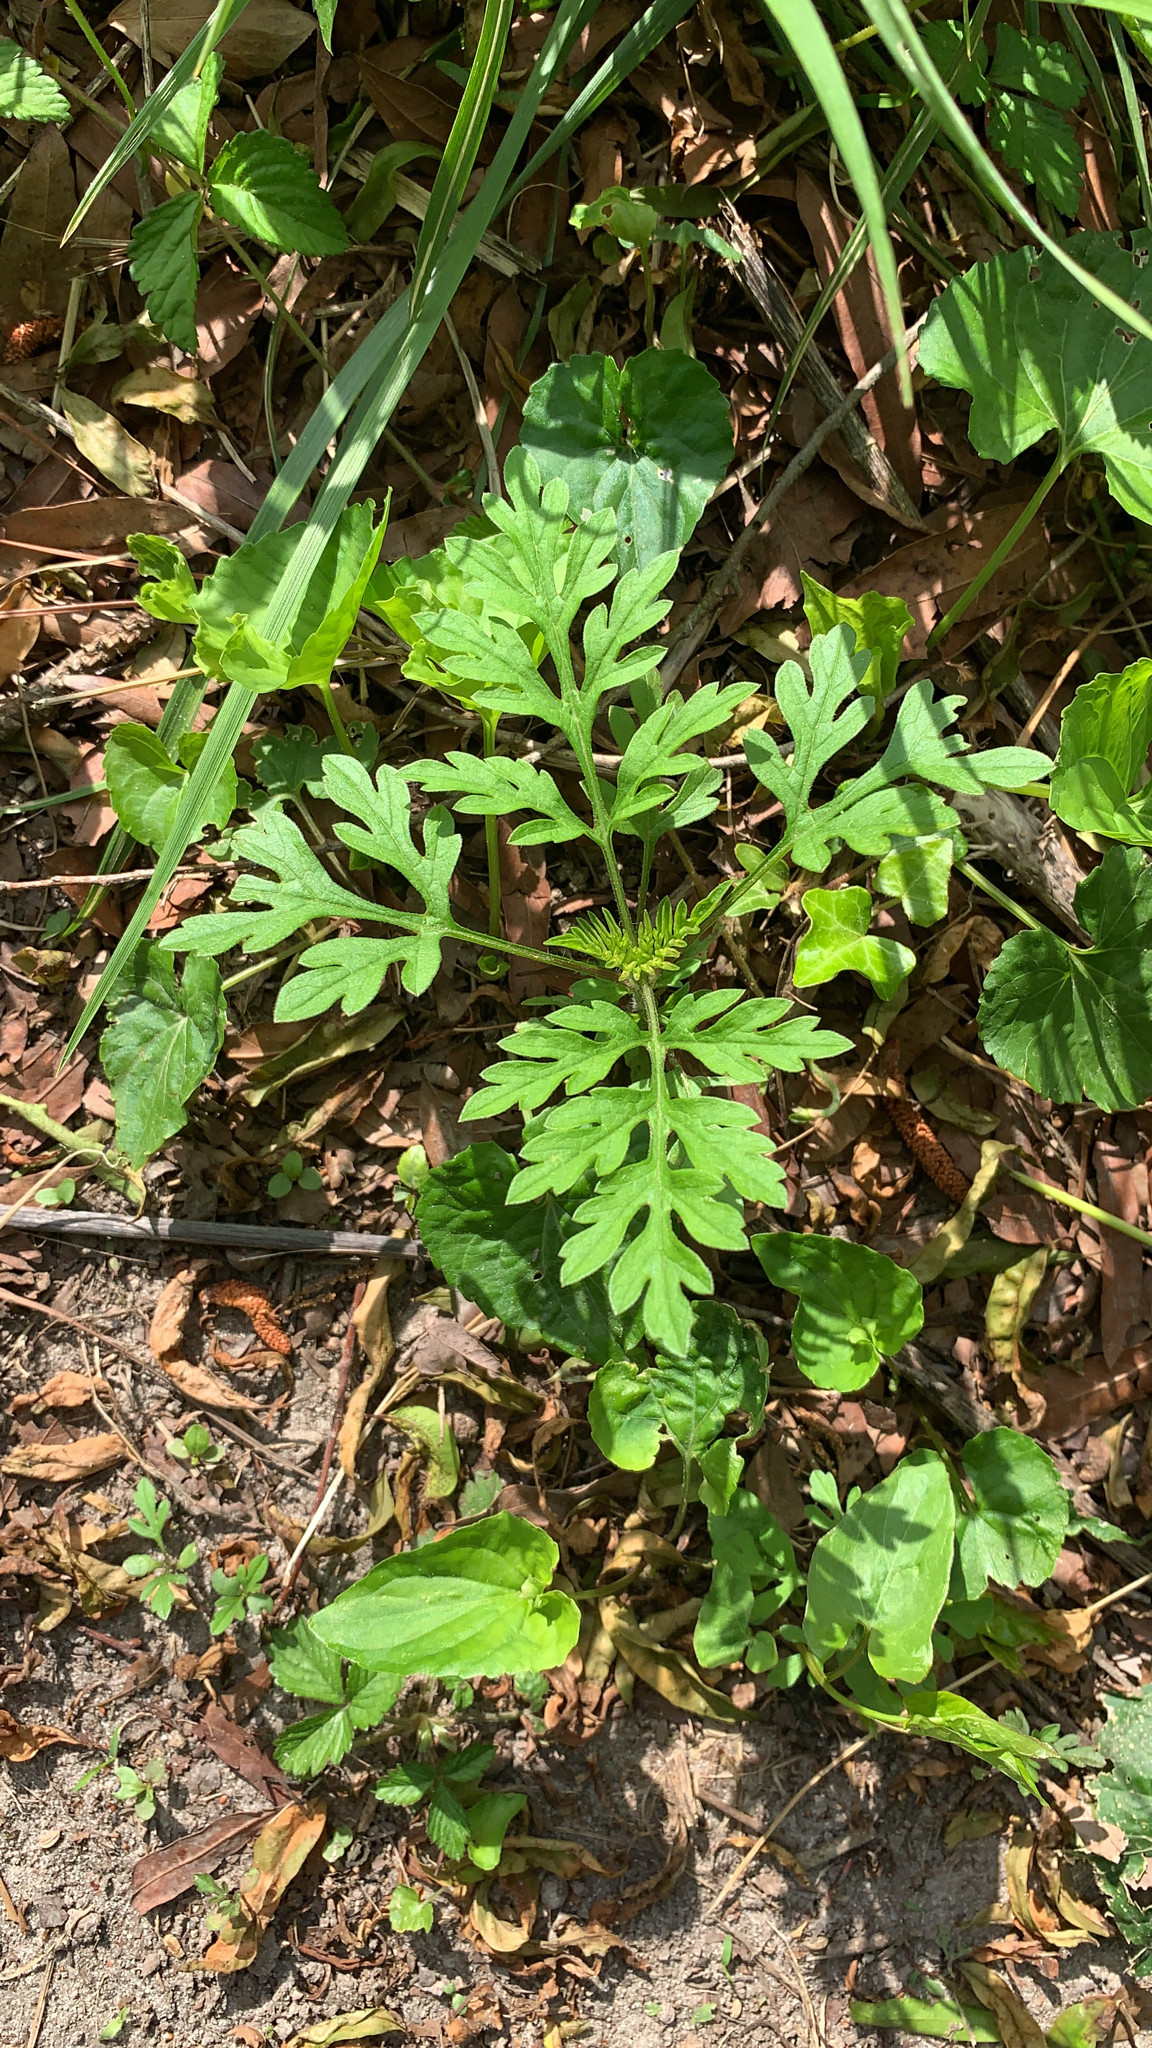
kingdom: Plantae
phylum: Tracheophyta
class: Magnoliopsida
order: Asterales
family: Asteraceae
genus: Ambrosia
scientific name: Ambrosia artemisiifolia
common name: Annual ragweed
